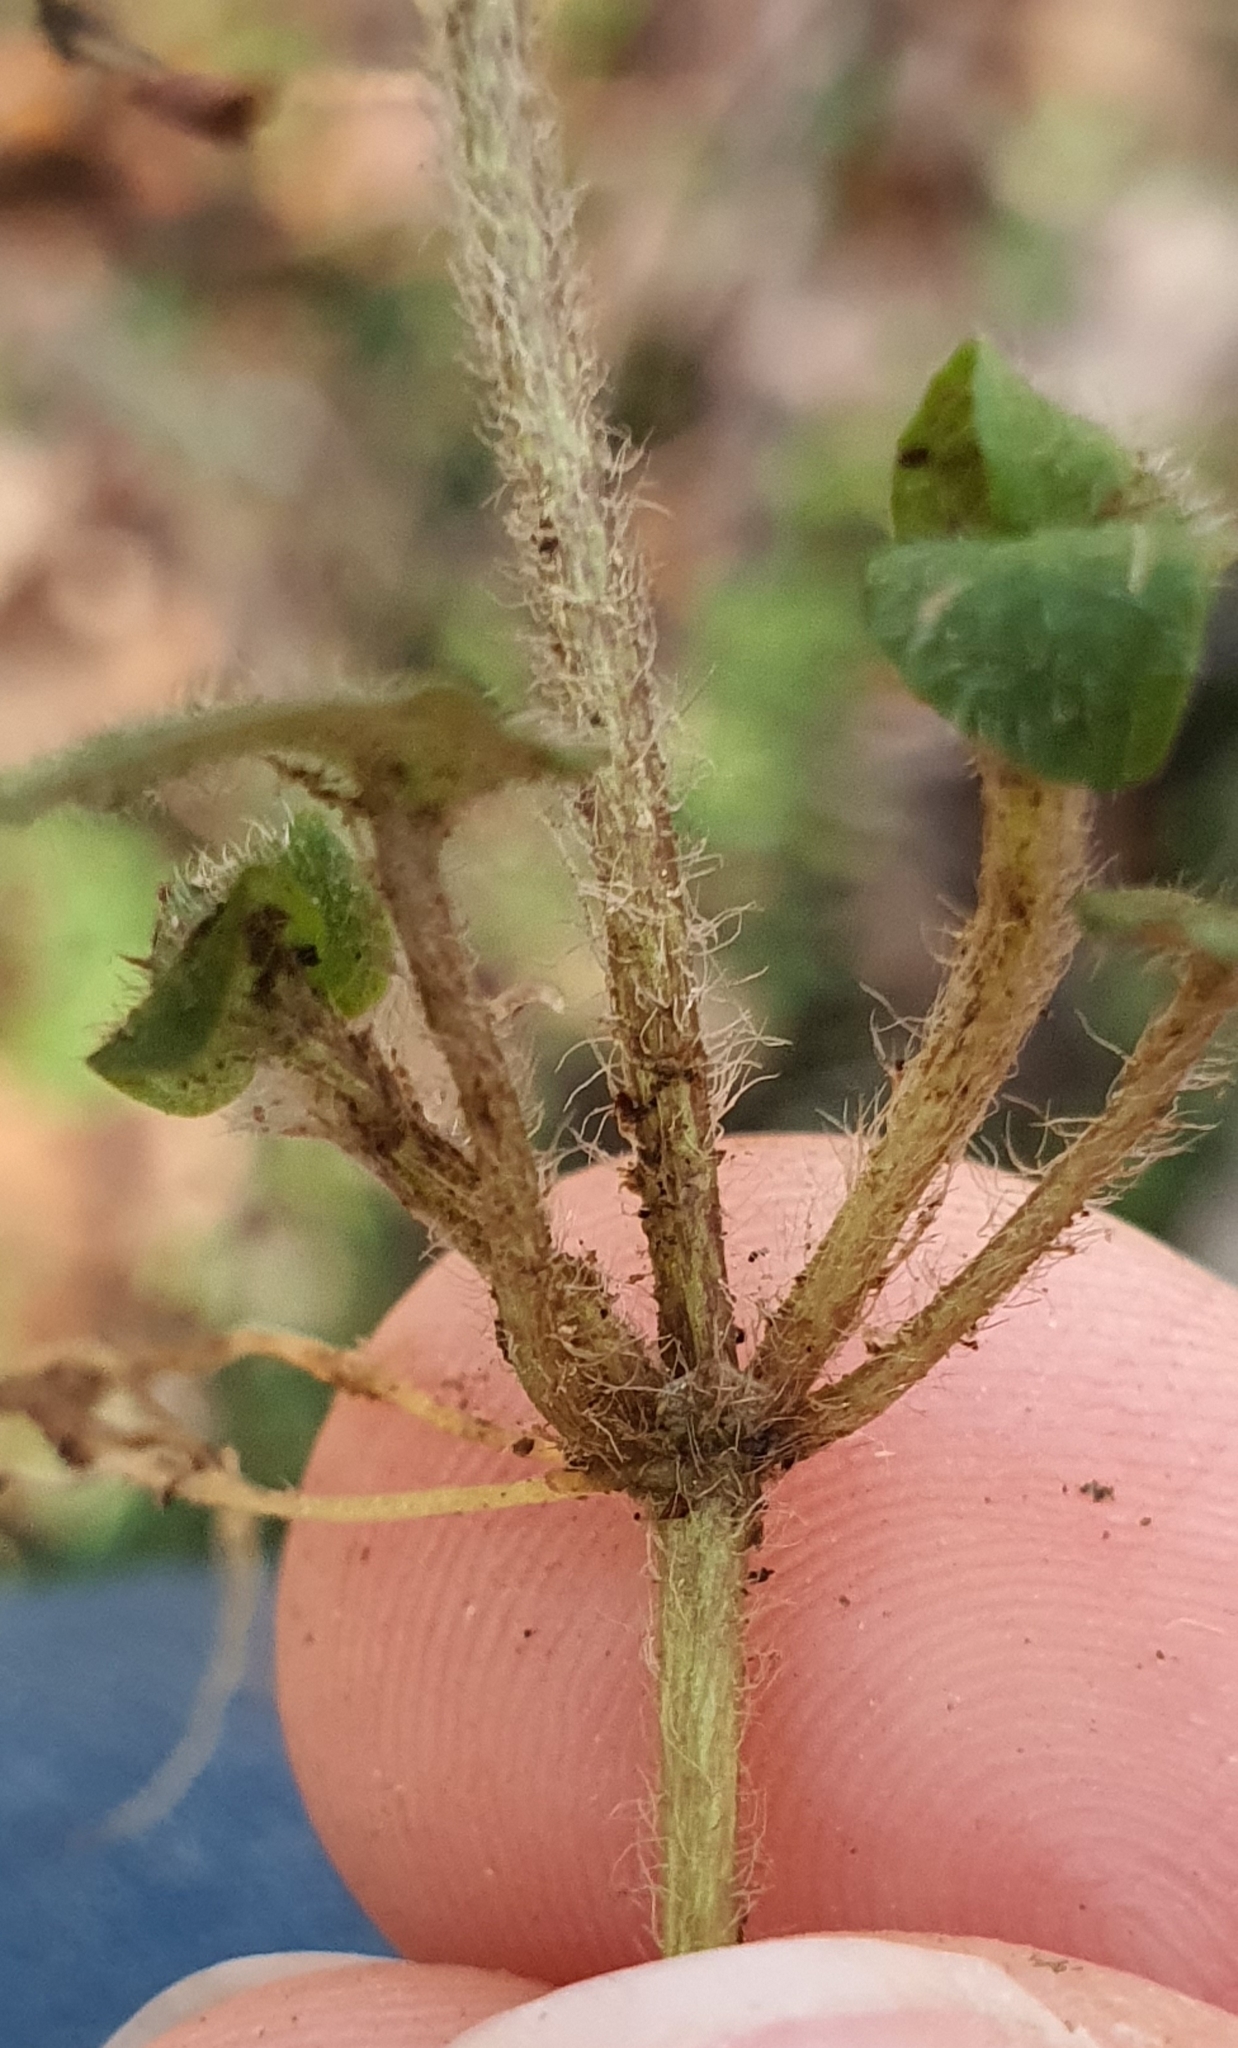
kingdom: Plantae
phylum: Tracheophyta
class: Magnoliopsida
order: Gentianales
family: Rubiaceae
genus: Nertera
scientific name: Nertera villosa
